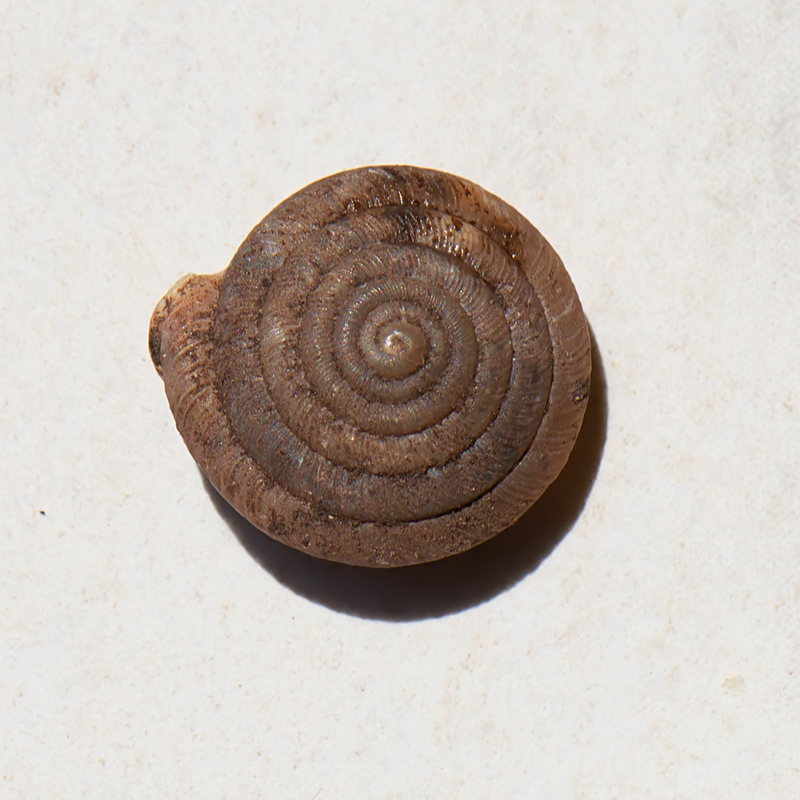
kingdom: Animalia
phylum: Mollusca
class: Gastropoda
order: Stylommatophora
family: Helicodontidae
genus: Lindholmiola
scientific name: Lindholmiola lens
